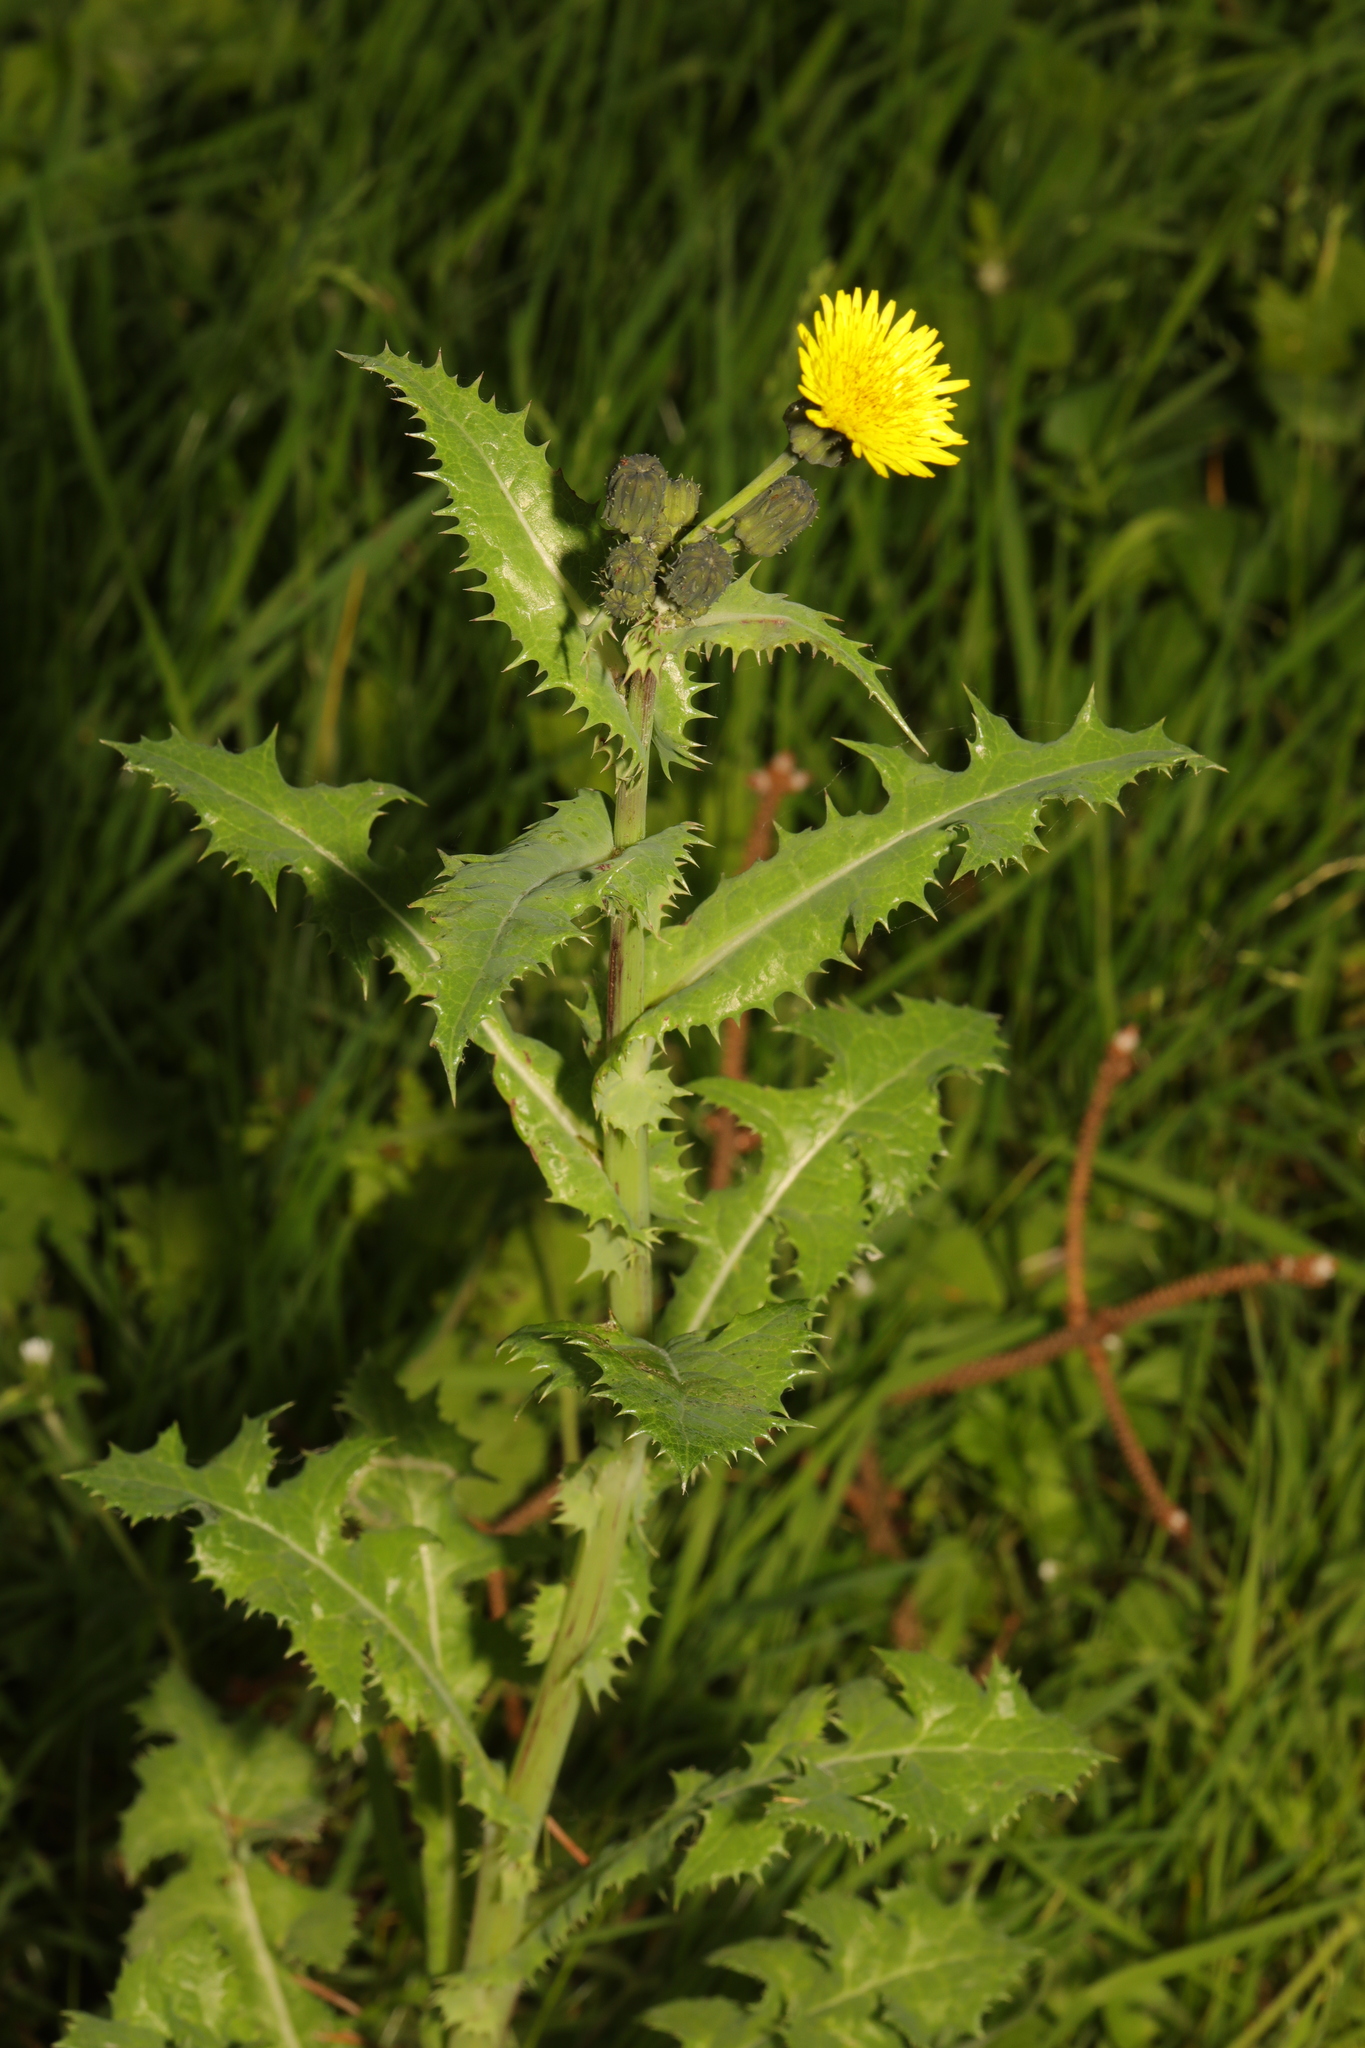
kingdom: Plantae
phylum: Tracheophyta
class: Magnoliopsida
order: Asterales
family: Asteraceae
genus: Sonchus
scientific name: Sonchus asper
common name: Prickly sow-thistle
